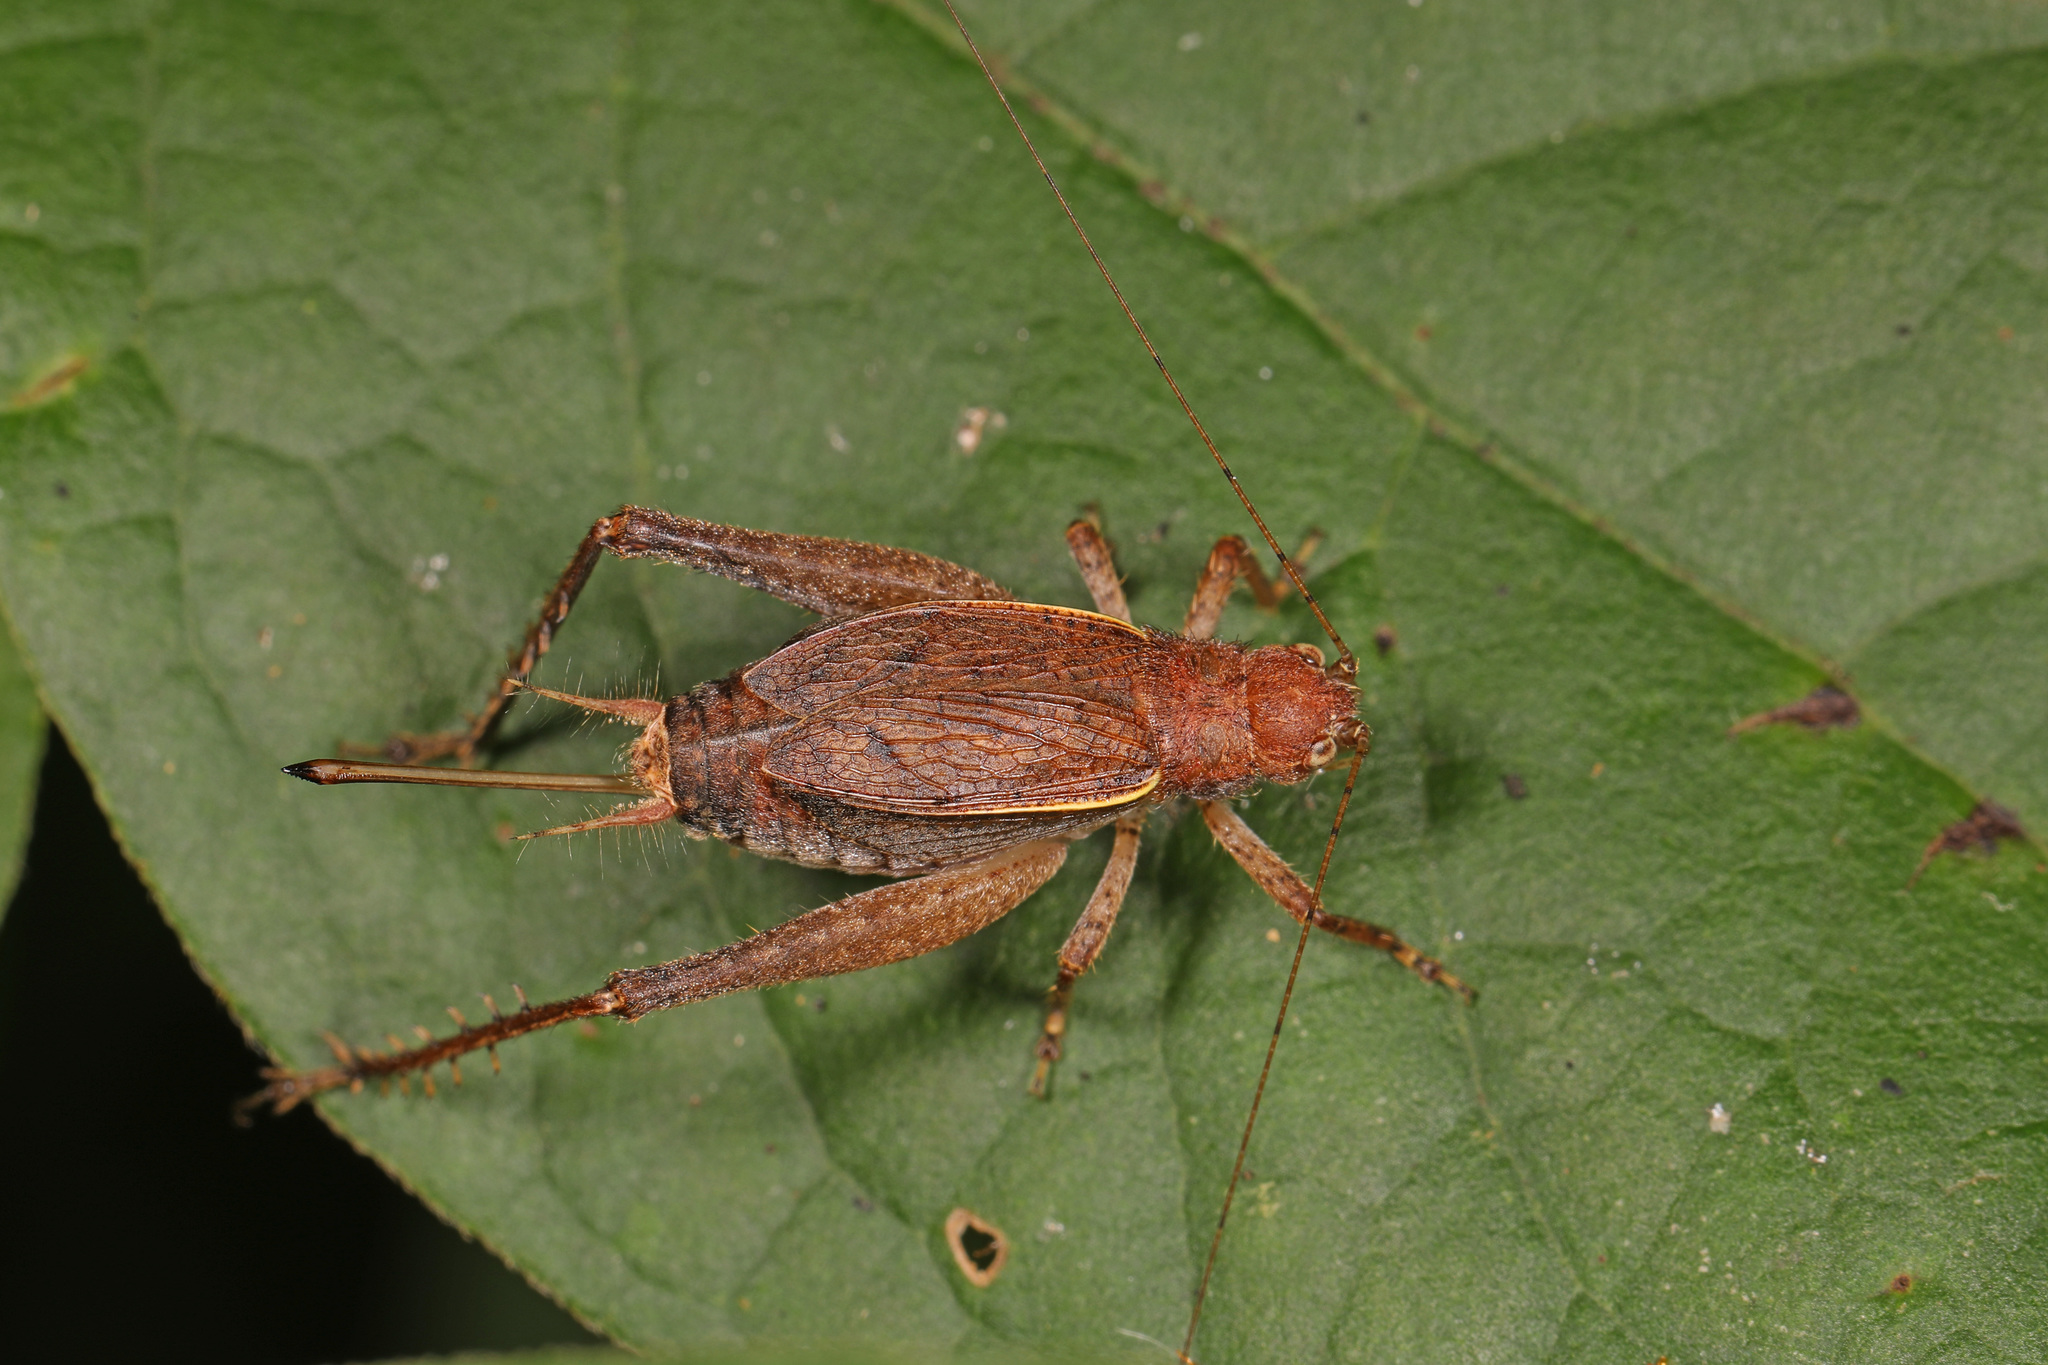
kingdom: Animalia
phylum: Arthropoda
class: Insecta
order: Orthoptera
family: Gryllidae
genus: Hapithus
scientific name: Hapithus agitator
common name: Restless bush cricket
